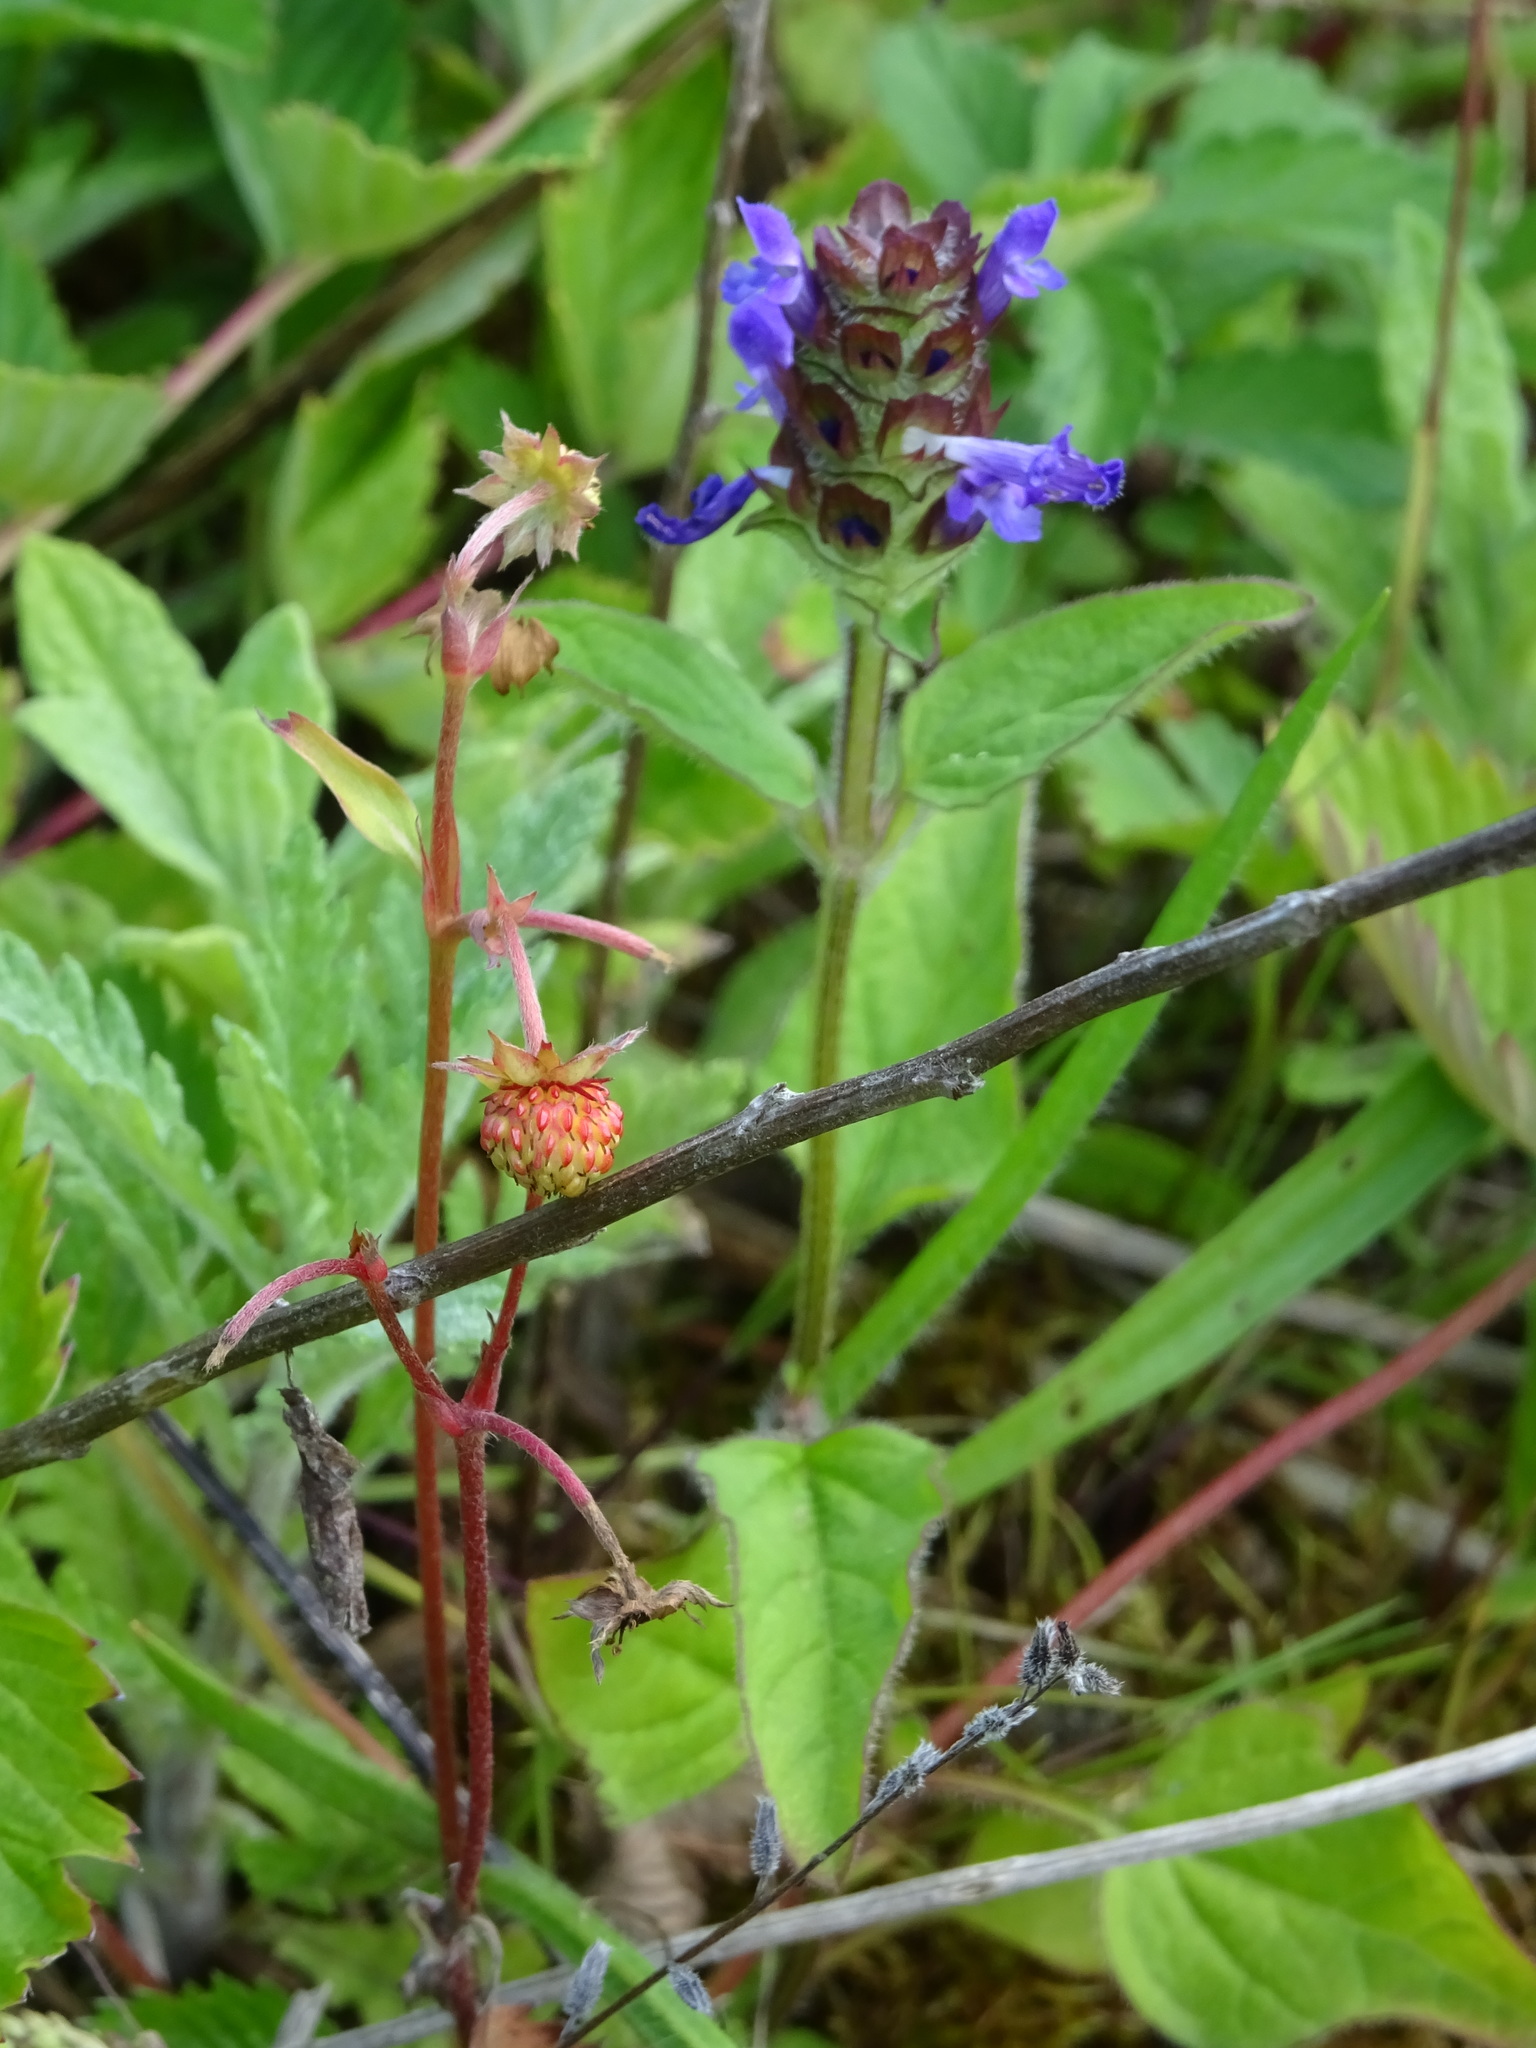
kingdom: Plantae
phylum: Tracheophyta
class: Magnoliopsida
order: Lamiales
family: Lamiaceae
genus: Prunella
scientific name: Prunella vulgaris
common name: Heal-all
